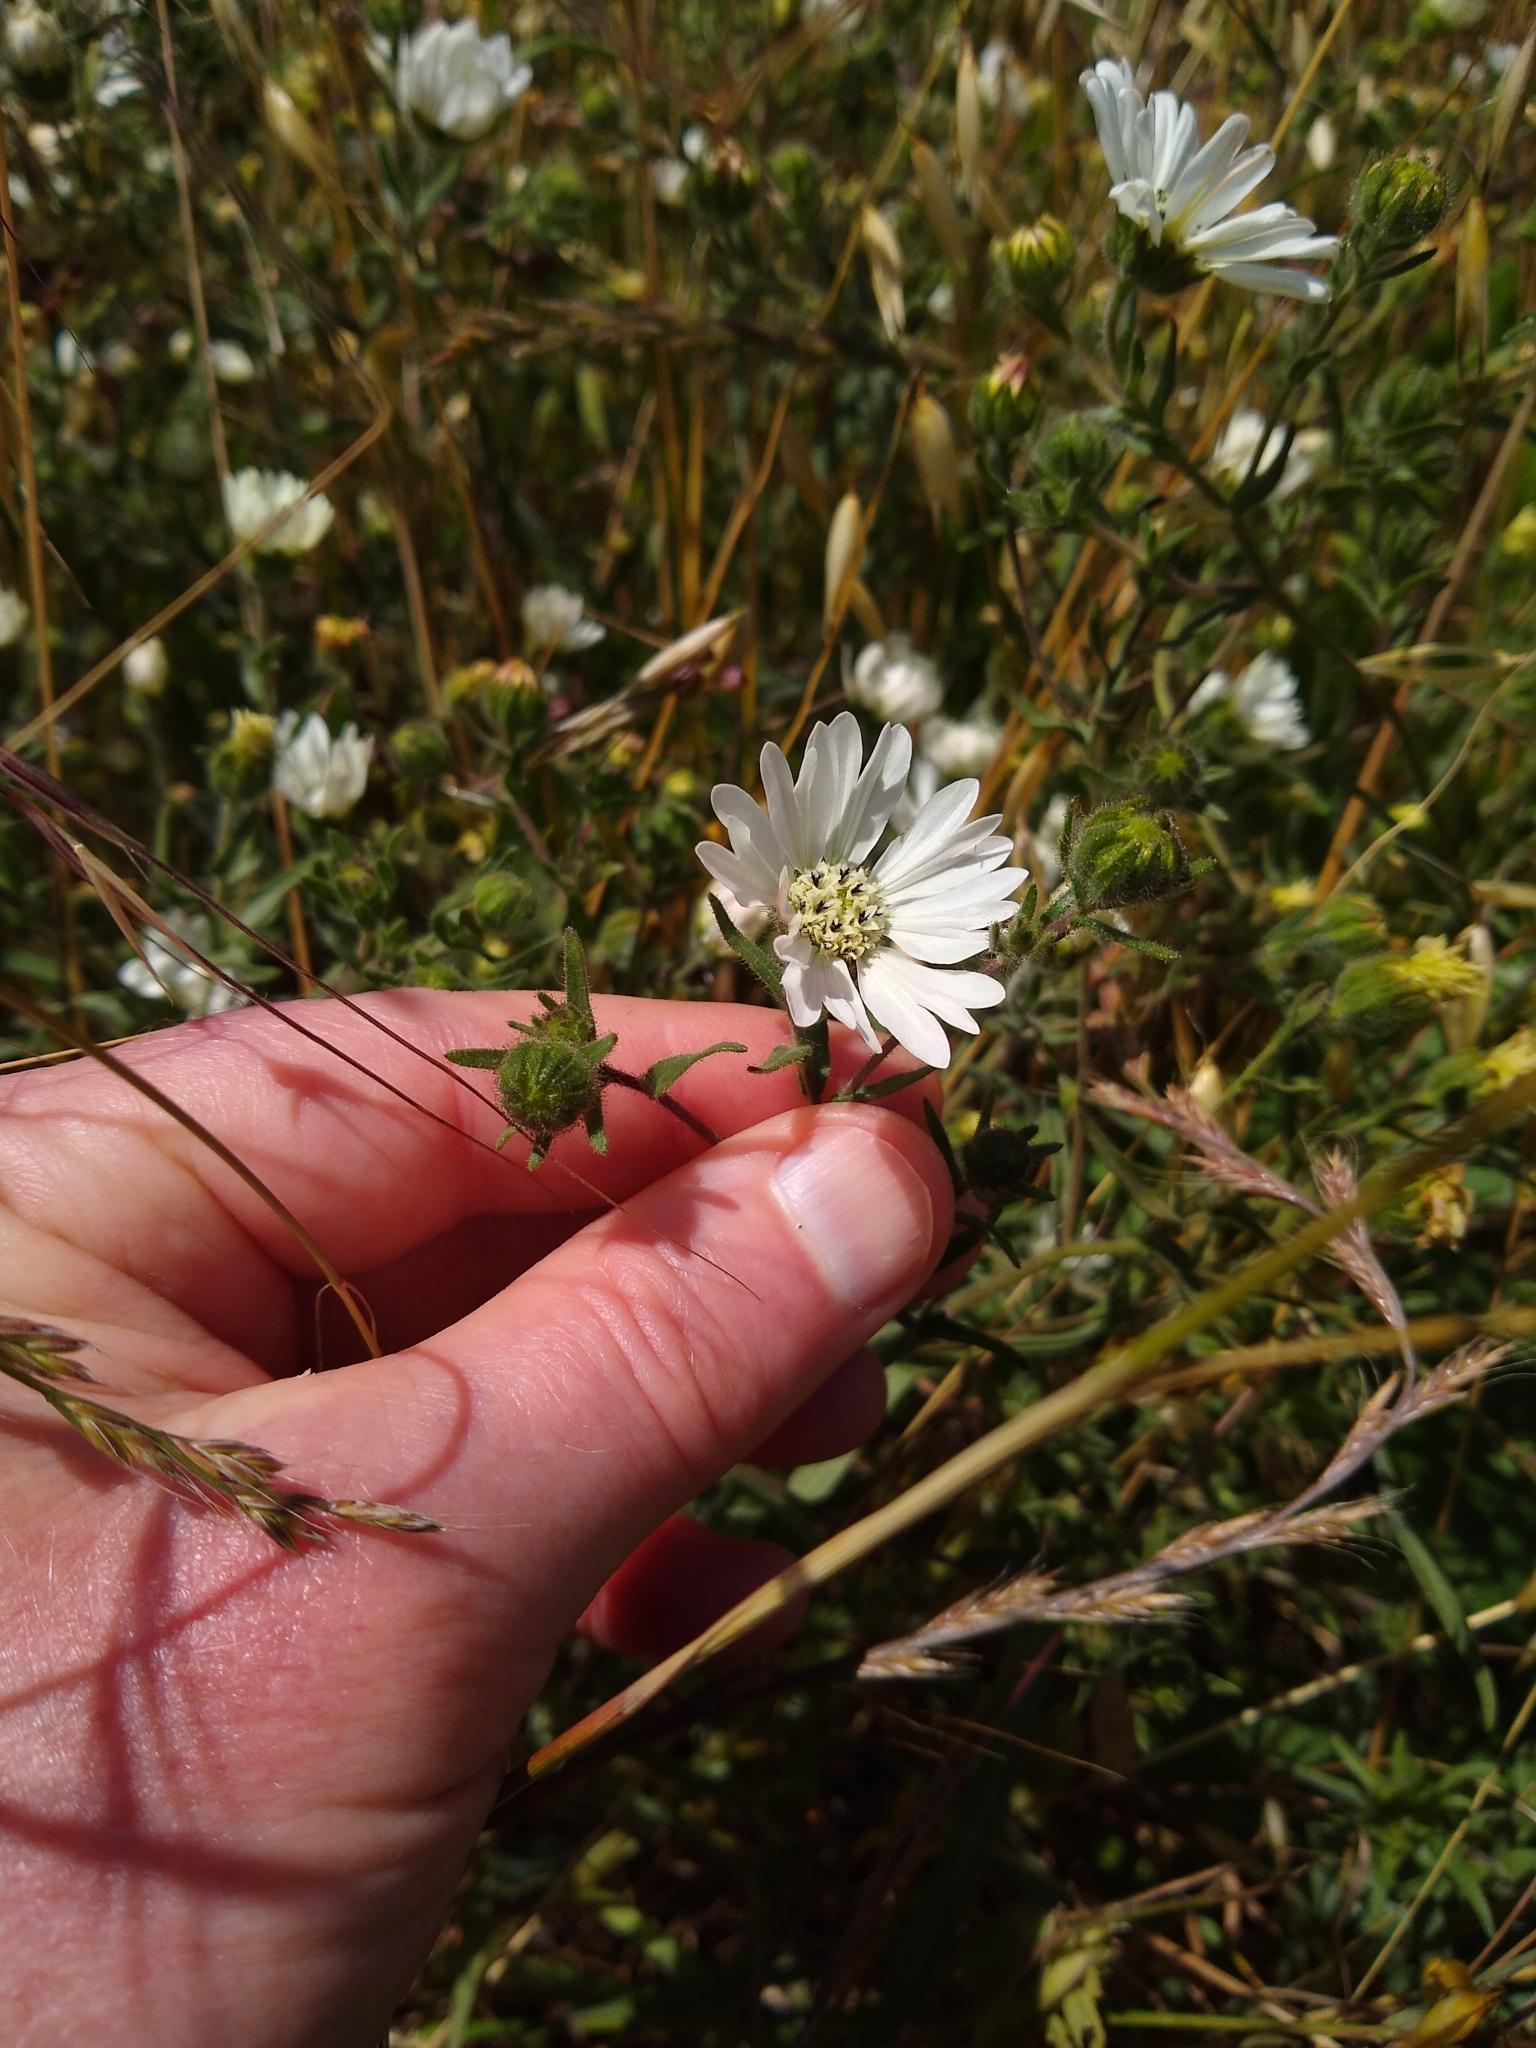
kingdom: Plantae
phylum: Tracheophyta
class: Magnoliopsida
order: Asterales
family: Asteraceae
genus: Hemizonia
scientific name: Hemizonia congesta
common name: Hayfield tarweed
